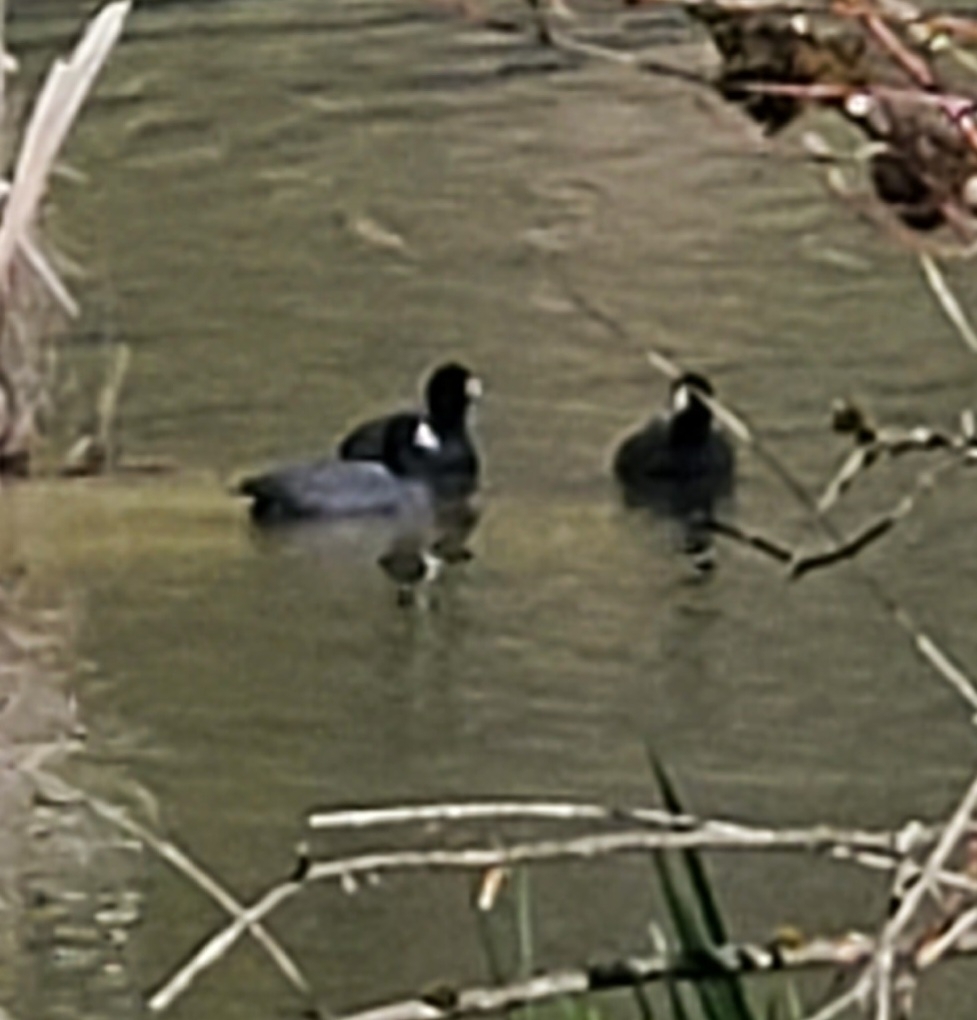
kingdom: Animalia
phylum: Chordata
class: Aves
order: Gruiformes
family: Rallidae
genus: Fulica
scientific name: Fulica americana
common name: American coot
